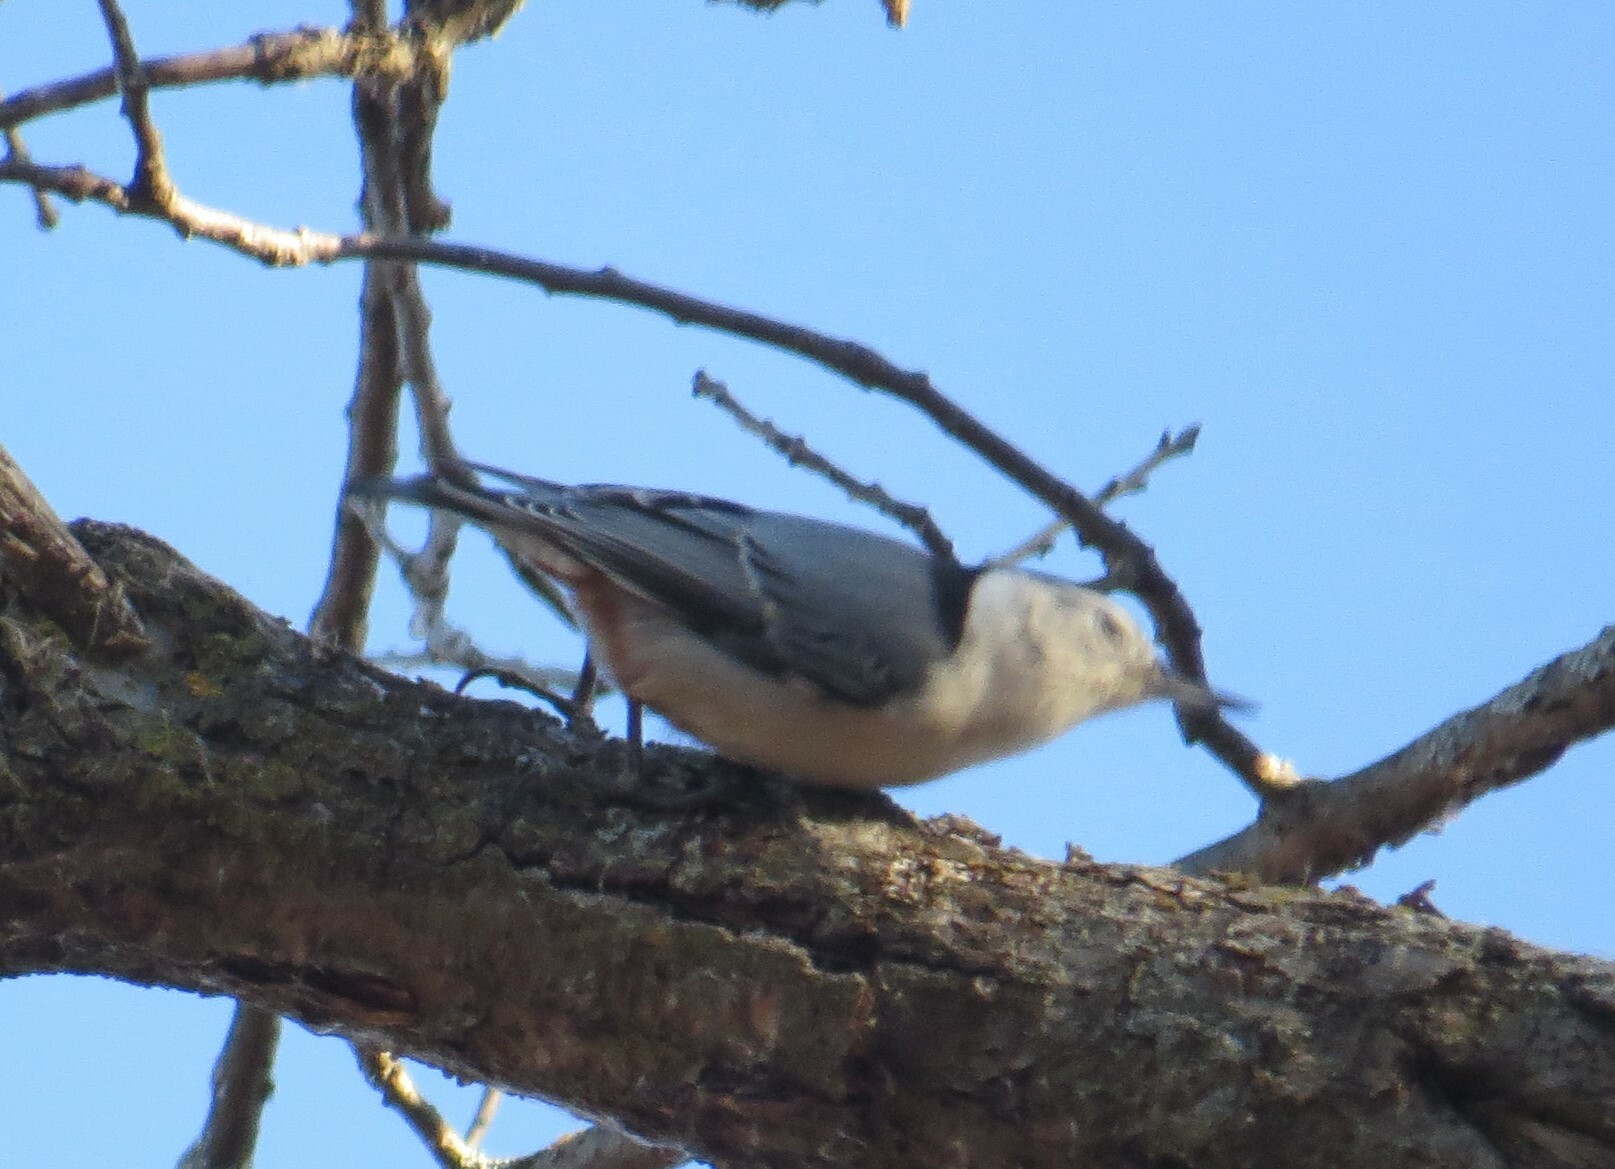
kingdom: Animalia
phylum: Chordata
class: Aves
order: Passeriformes
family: Sittidae
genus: Sitta
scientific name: Sitta carolinensis
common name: White-breasted nuthatch
